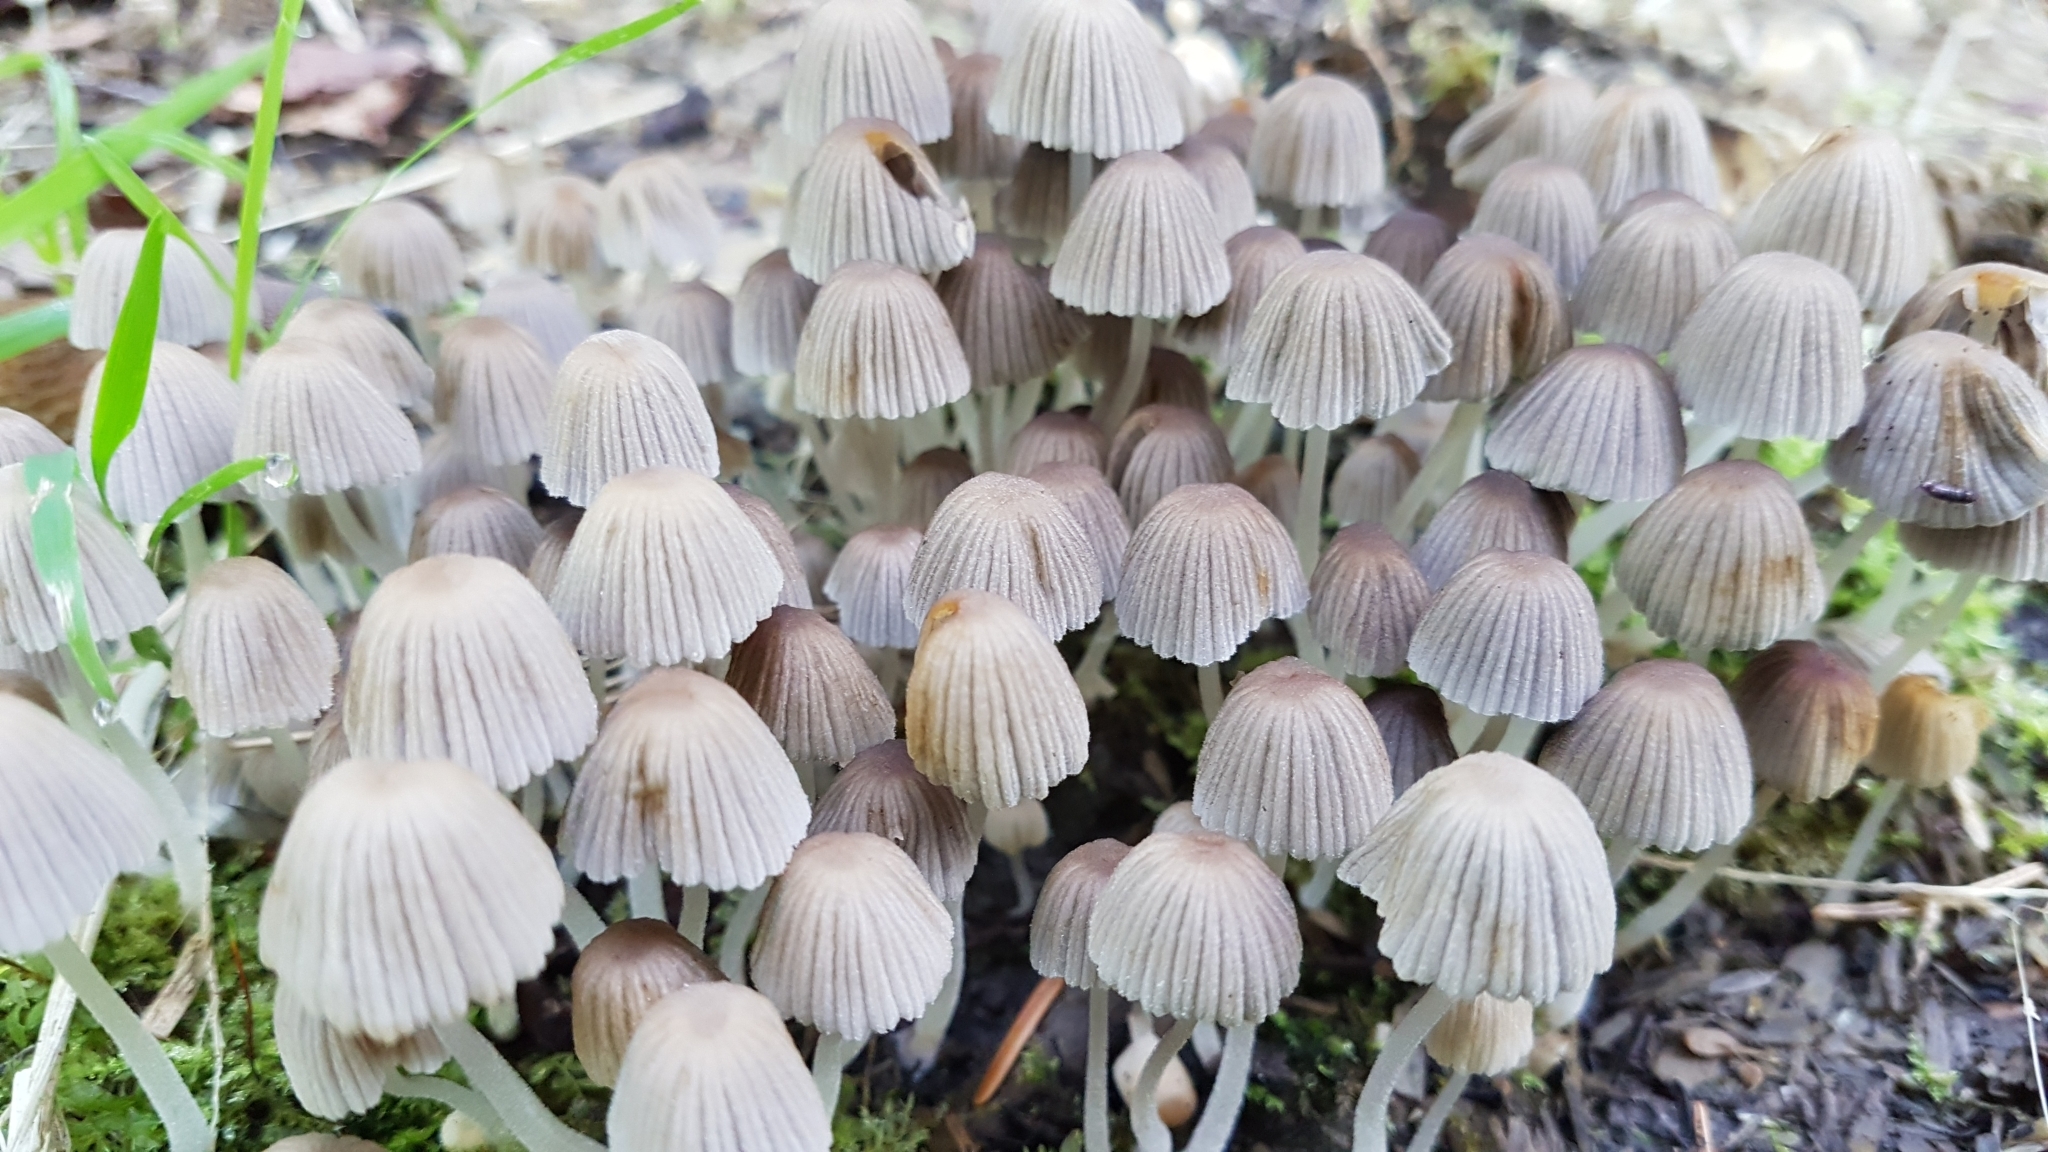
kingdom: Fungi
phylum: Basidiomycota
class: Agaricomycetes
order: Agaricales
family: Psathyrellaceae
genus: Coprinellus
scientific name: Coprinellus disseminatus
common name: Fairies' bonnets
